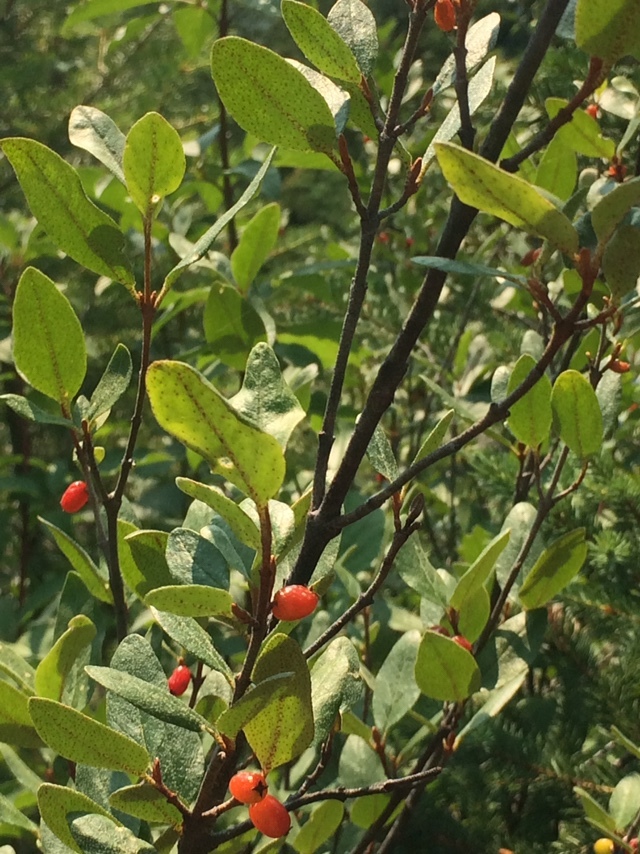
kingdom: Plantae
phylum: Tracheophyta
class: Magnoliopsida
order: Rosales
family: Elaeagnaceae
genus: Shepherdia
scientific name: Shepherdia canadensis
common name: Soapberry
